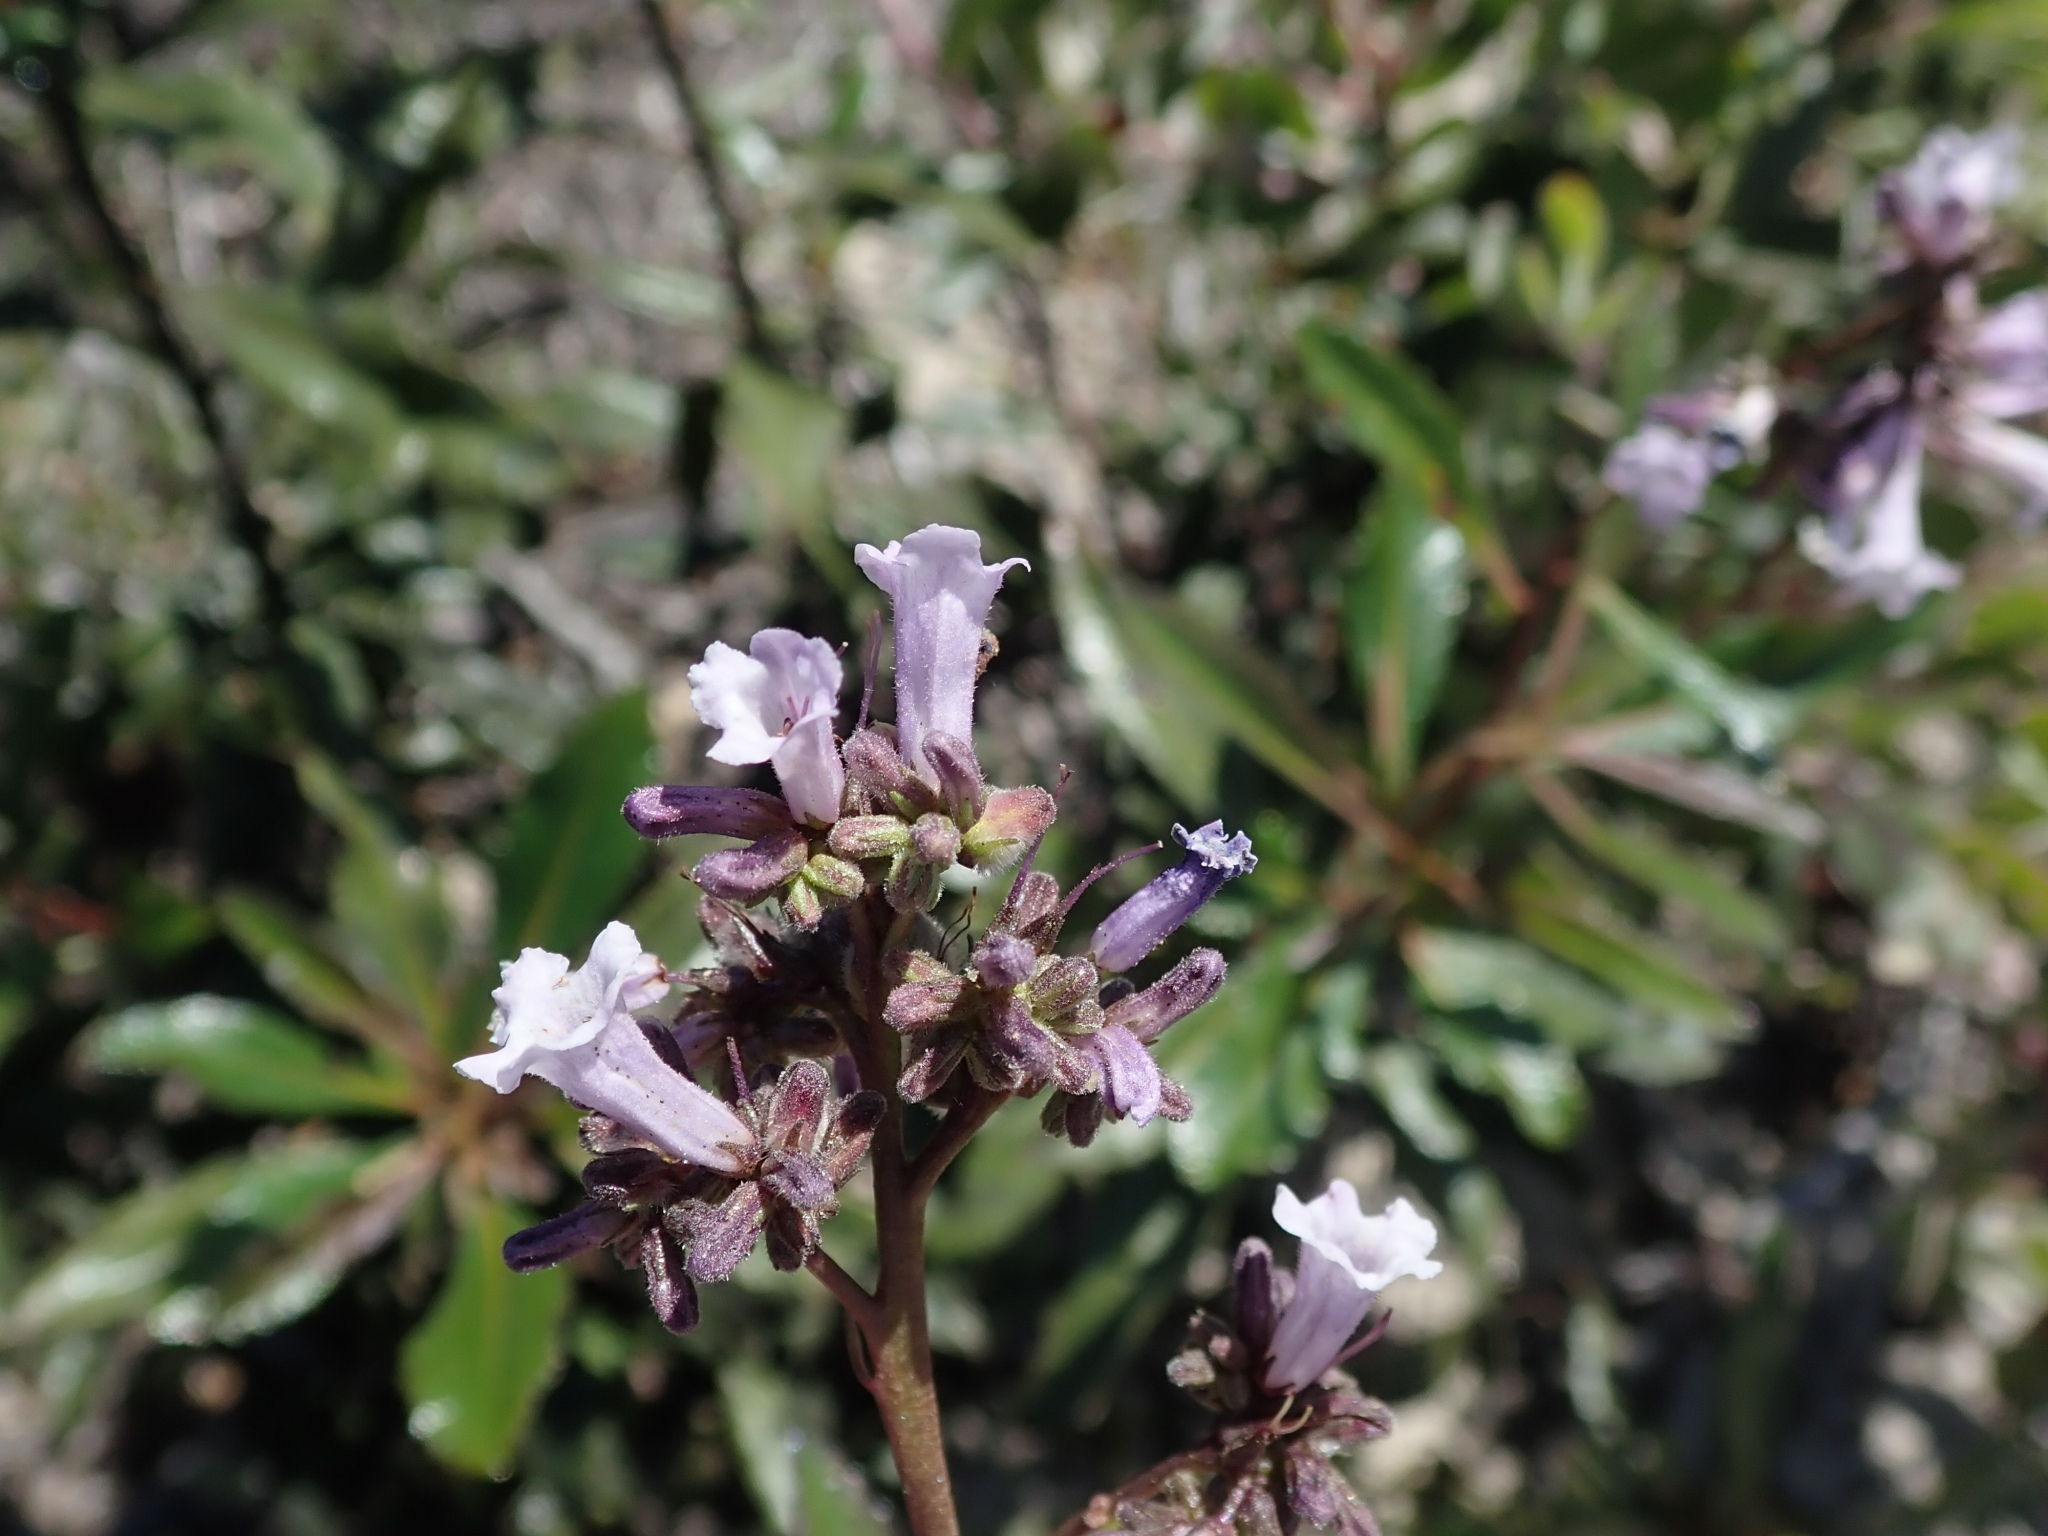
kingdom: Plantae
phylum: Tracheophyta
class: Magnoliopsida
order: Boraginales
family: Namaceae
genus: Eriodictyon
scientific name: Eriodictyon californicum
